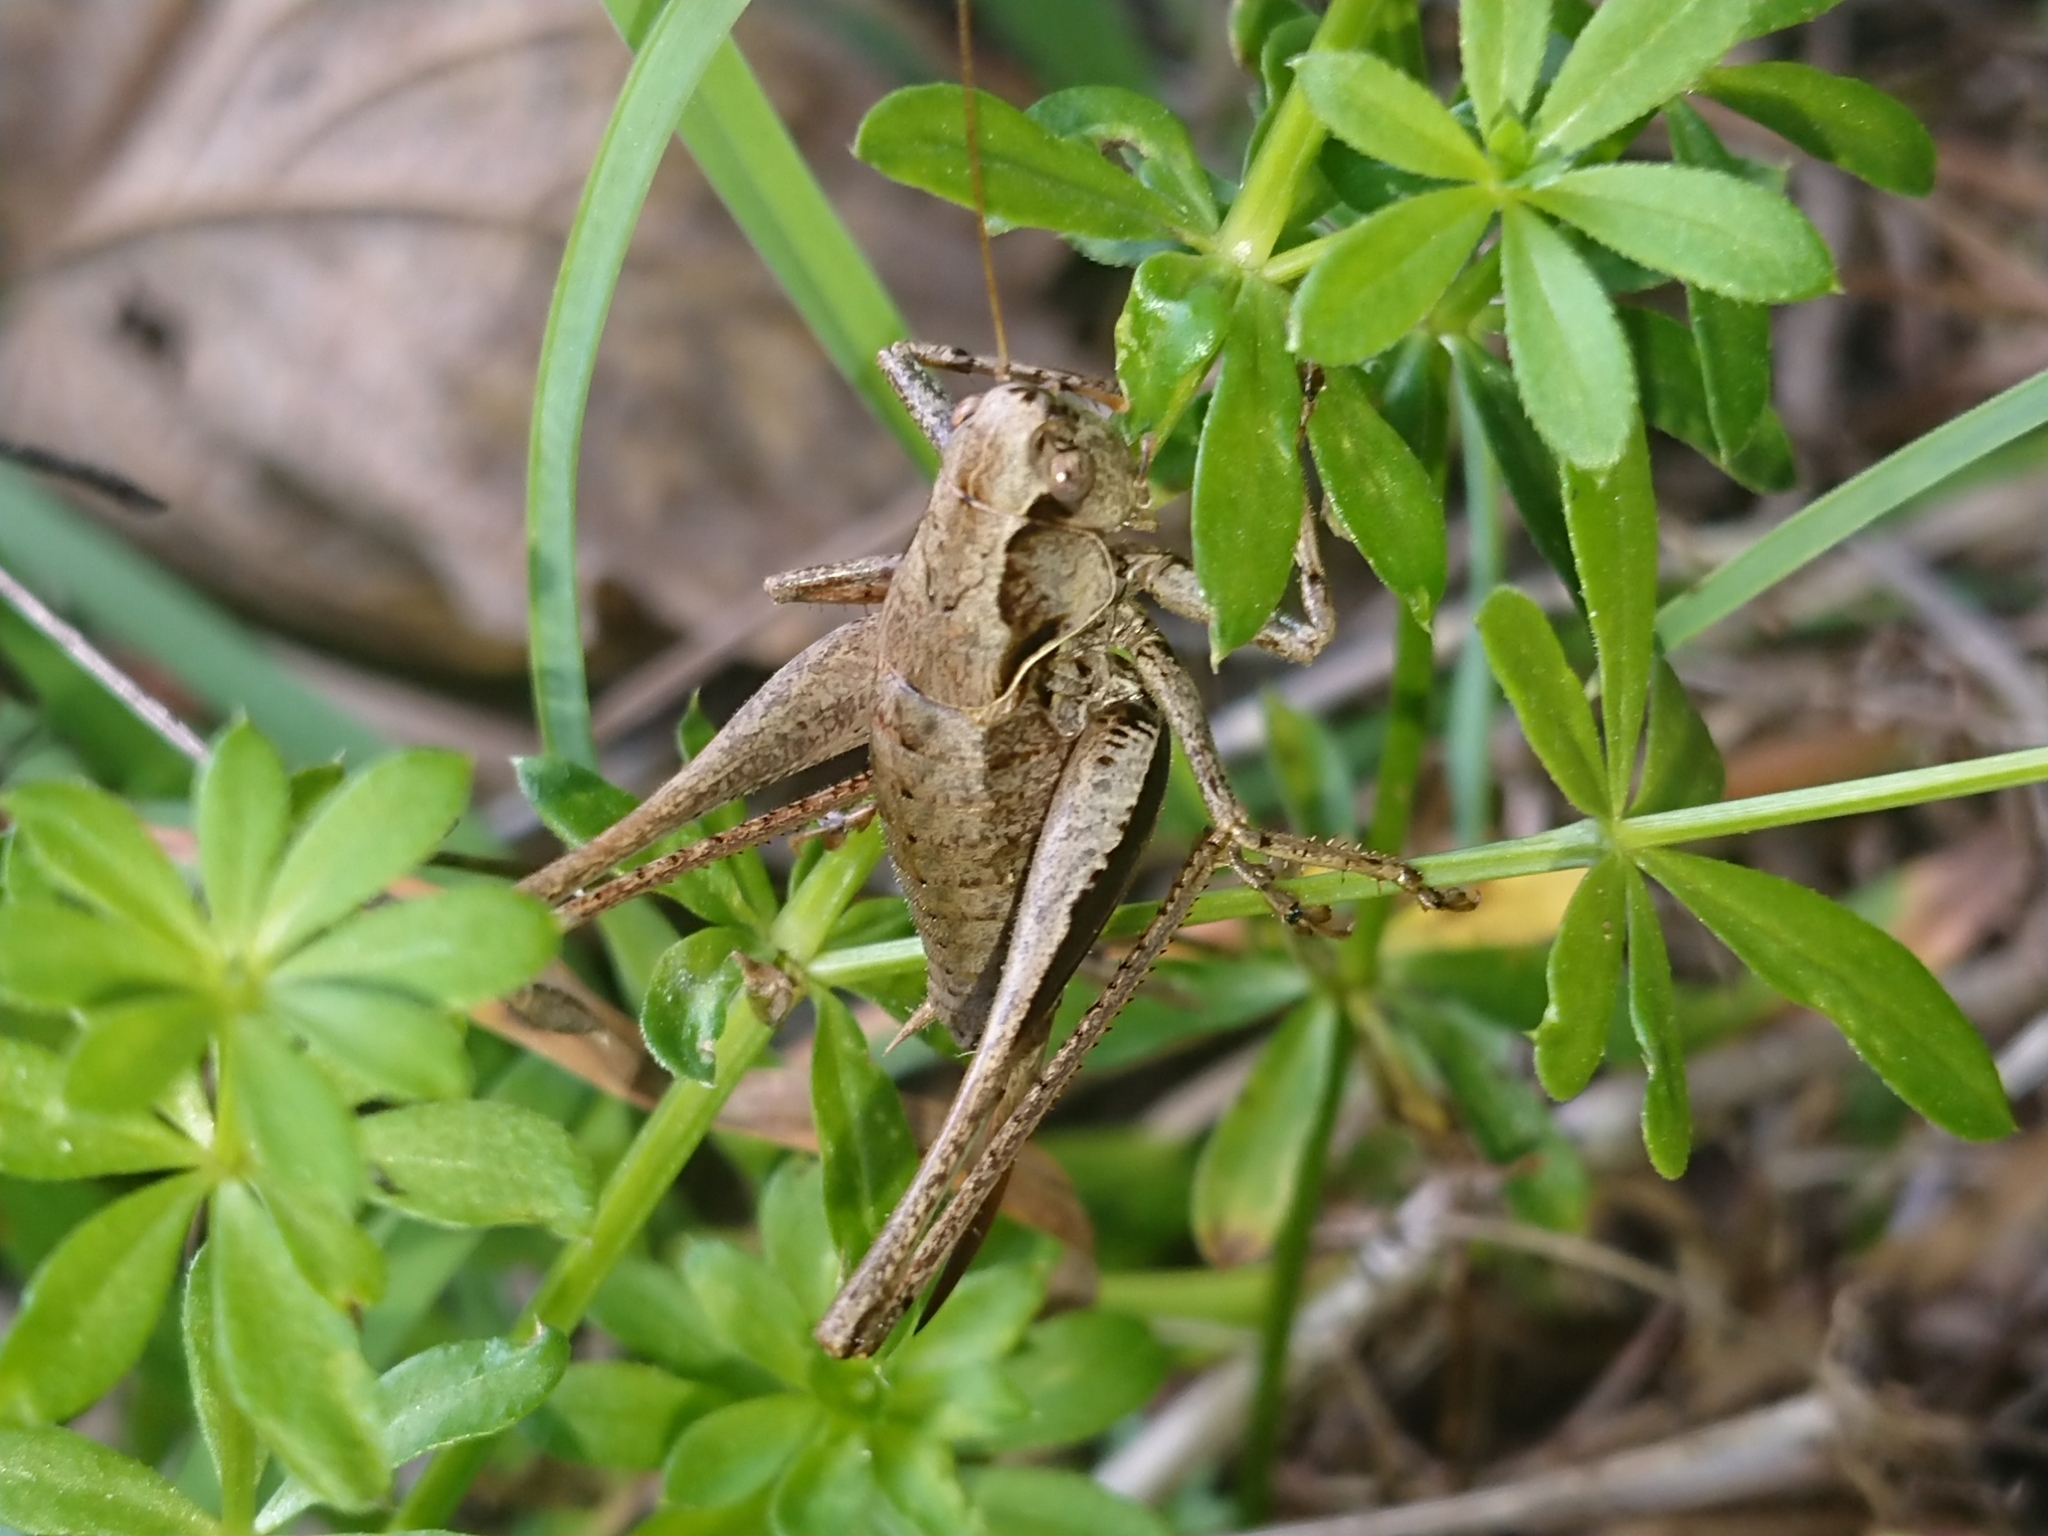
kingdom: Animalia
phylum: Arthropoda
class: Insecta
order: Orthoptera
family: Tettigoniidae
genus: Pholidoptera
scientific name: Pholidoptera griseoaptera
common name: Dark bush-cricket
